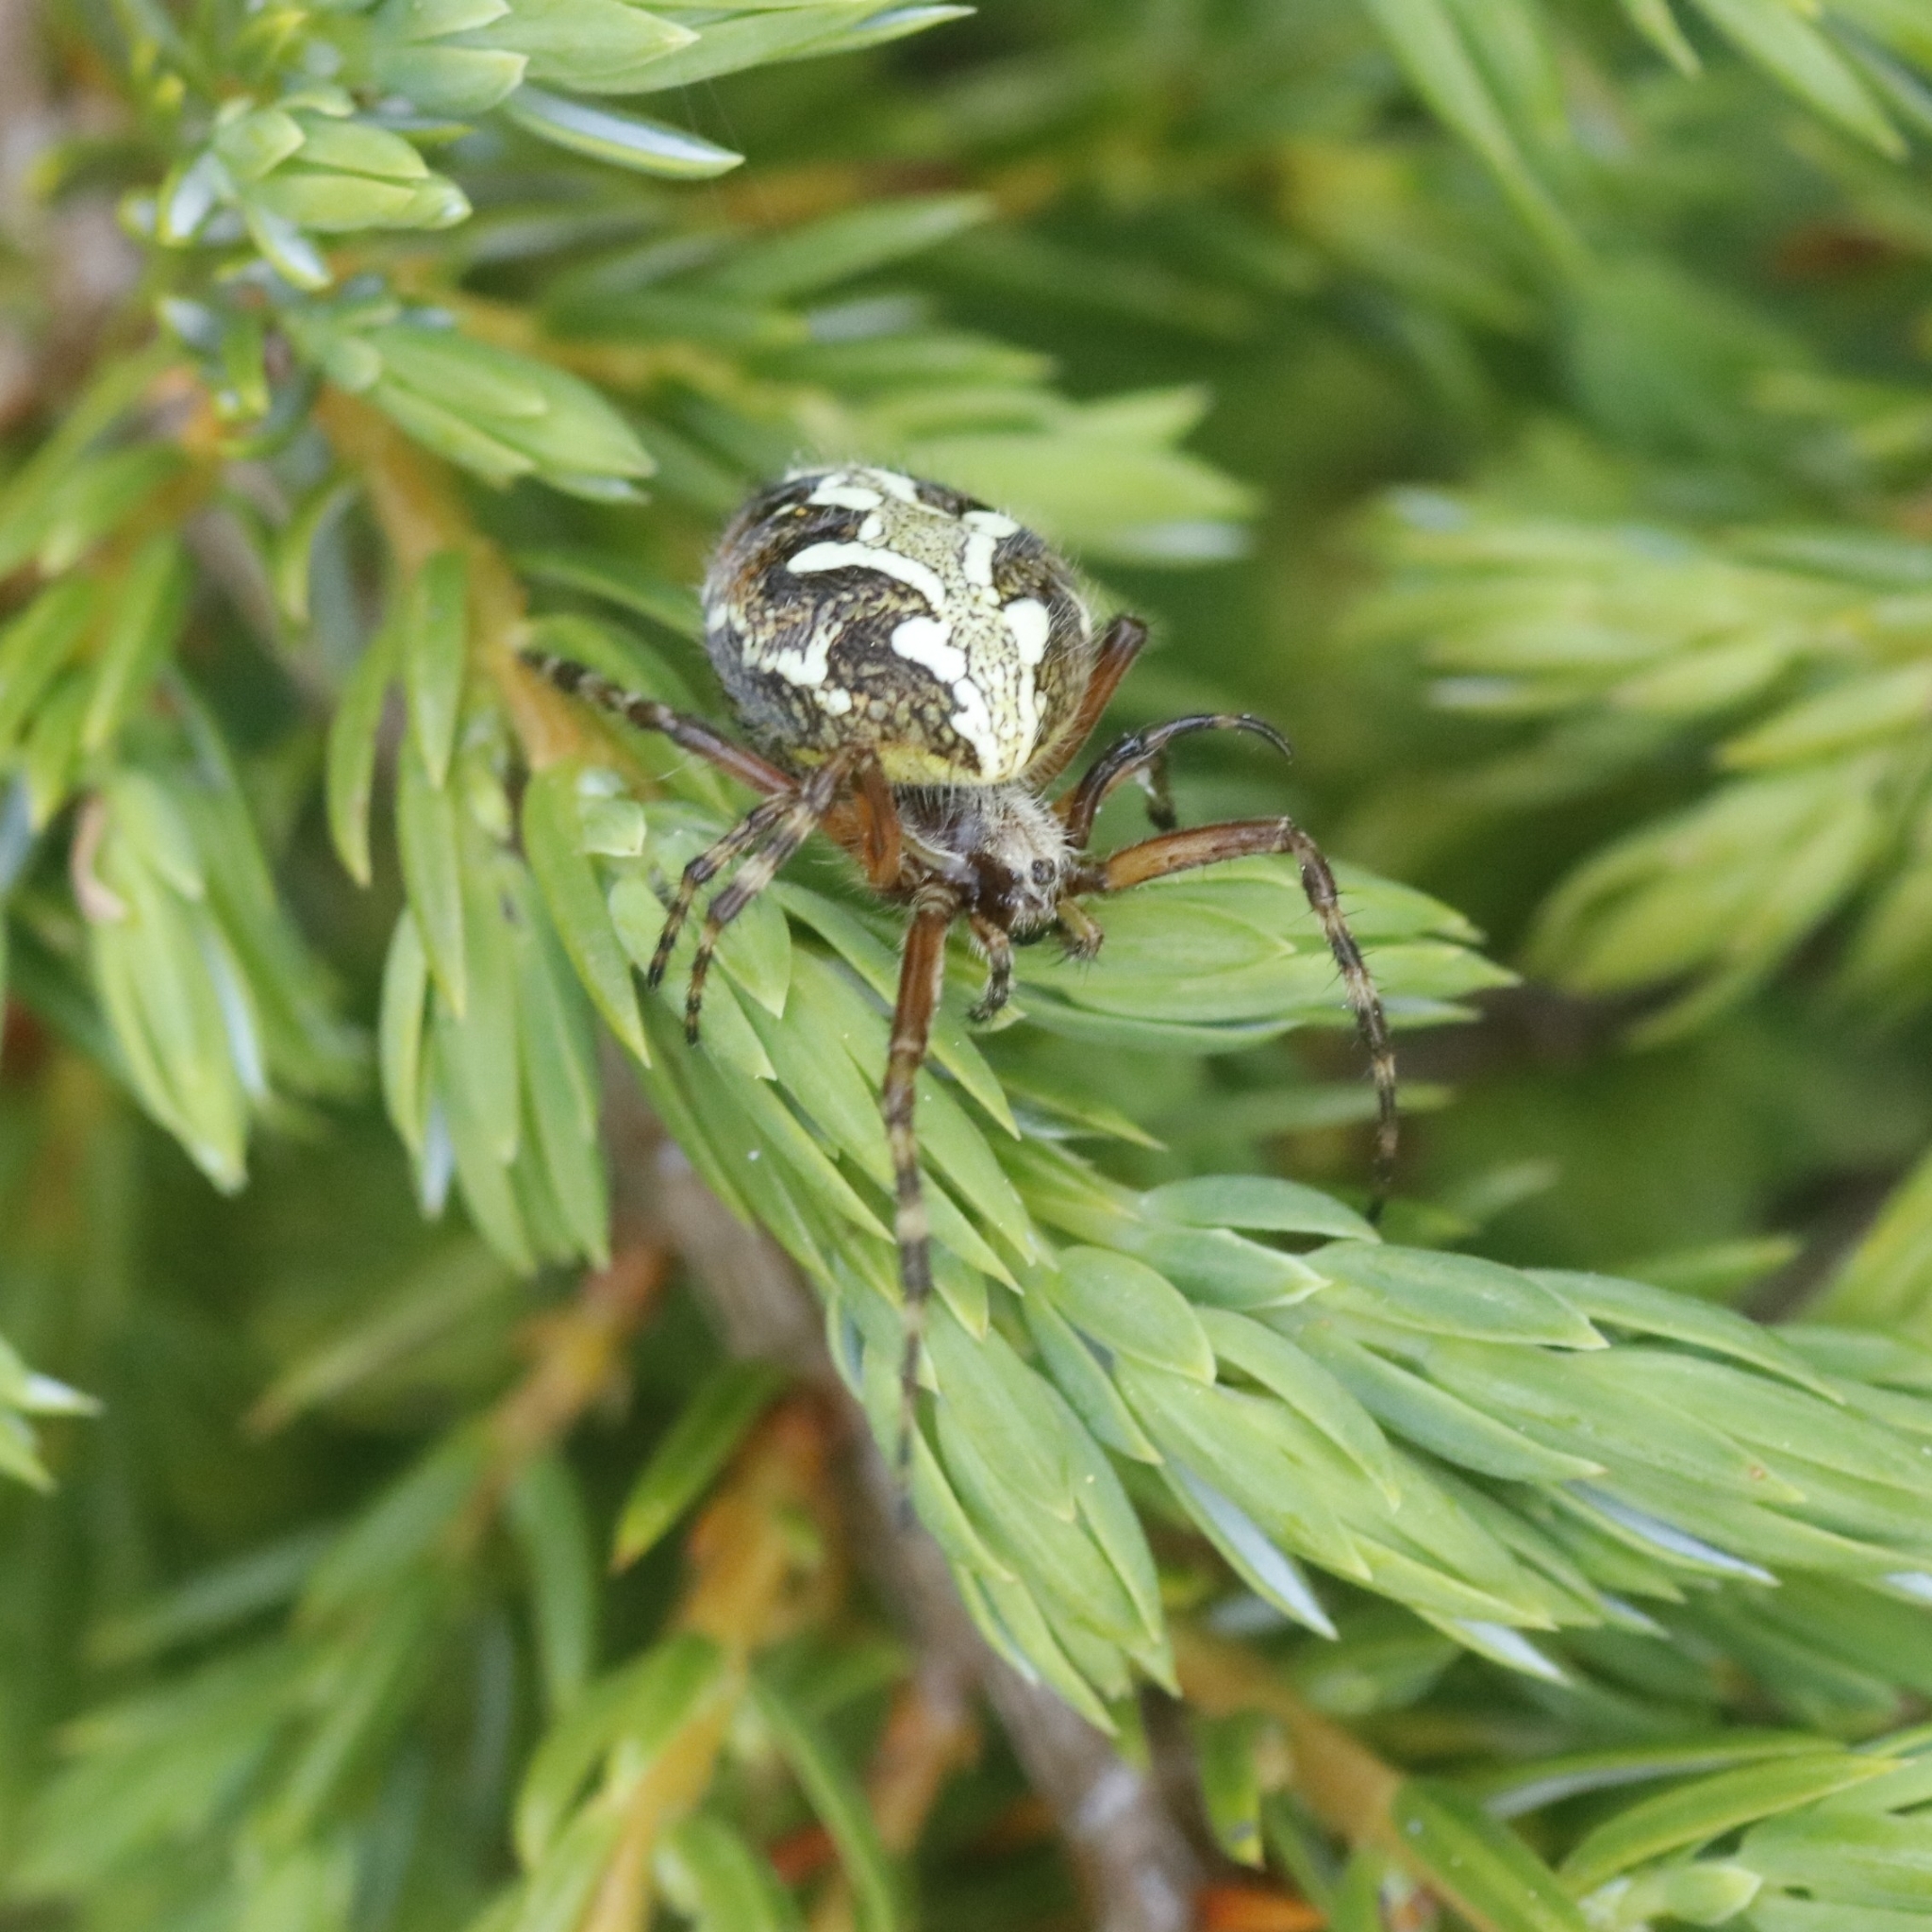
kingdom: Animalia
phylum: Arthropoda
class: Arachnida
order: Araneae
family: Araneidae
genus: Aculepeira
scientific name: Aculepeira ceropegia
